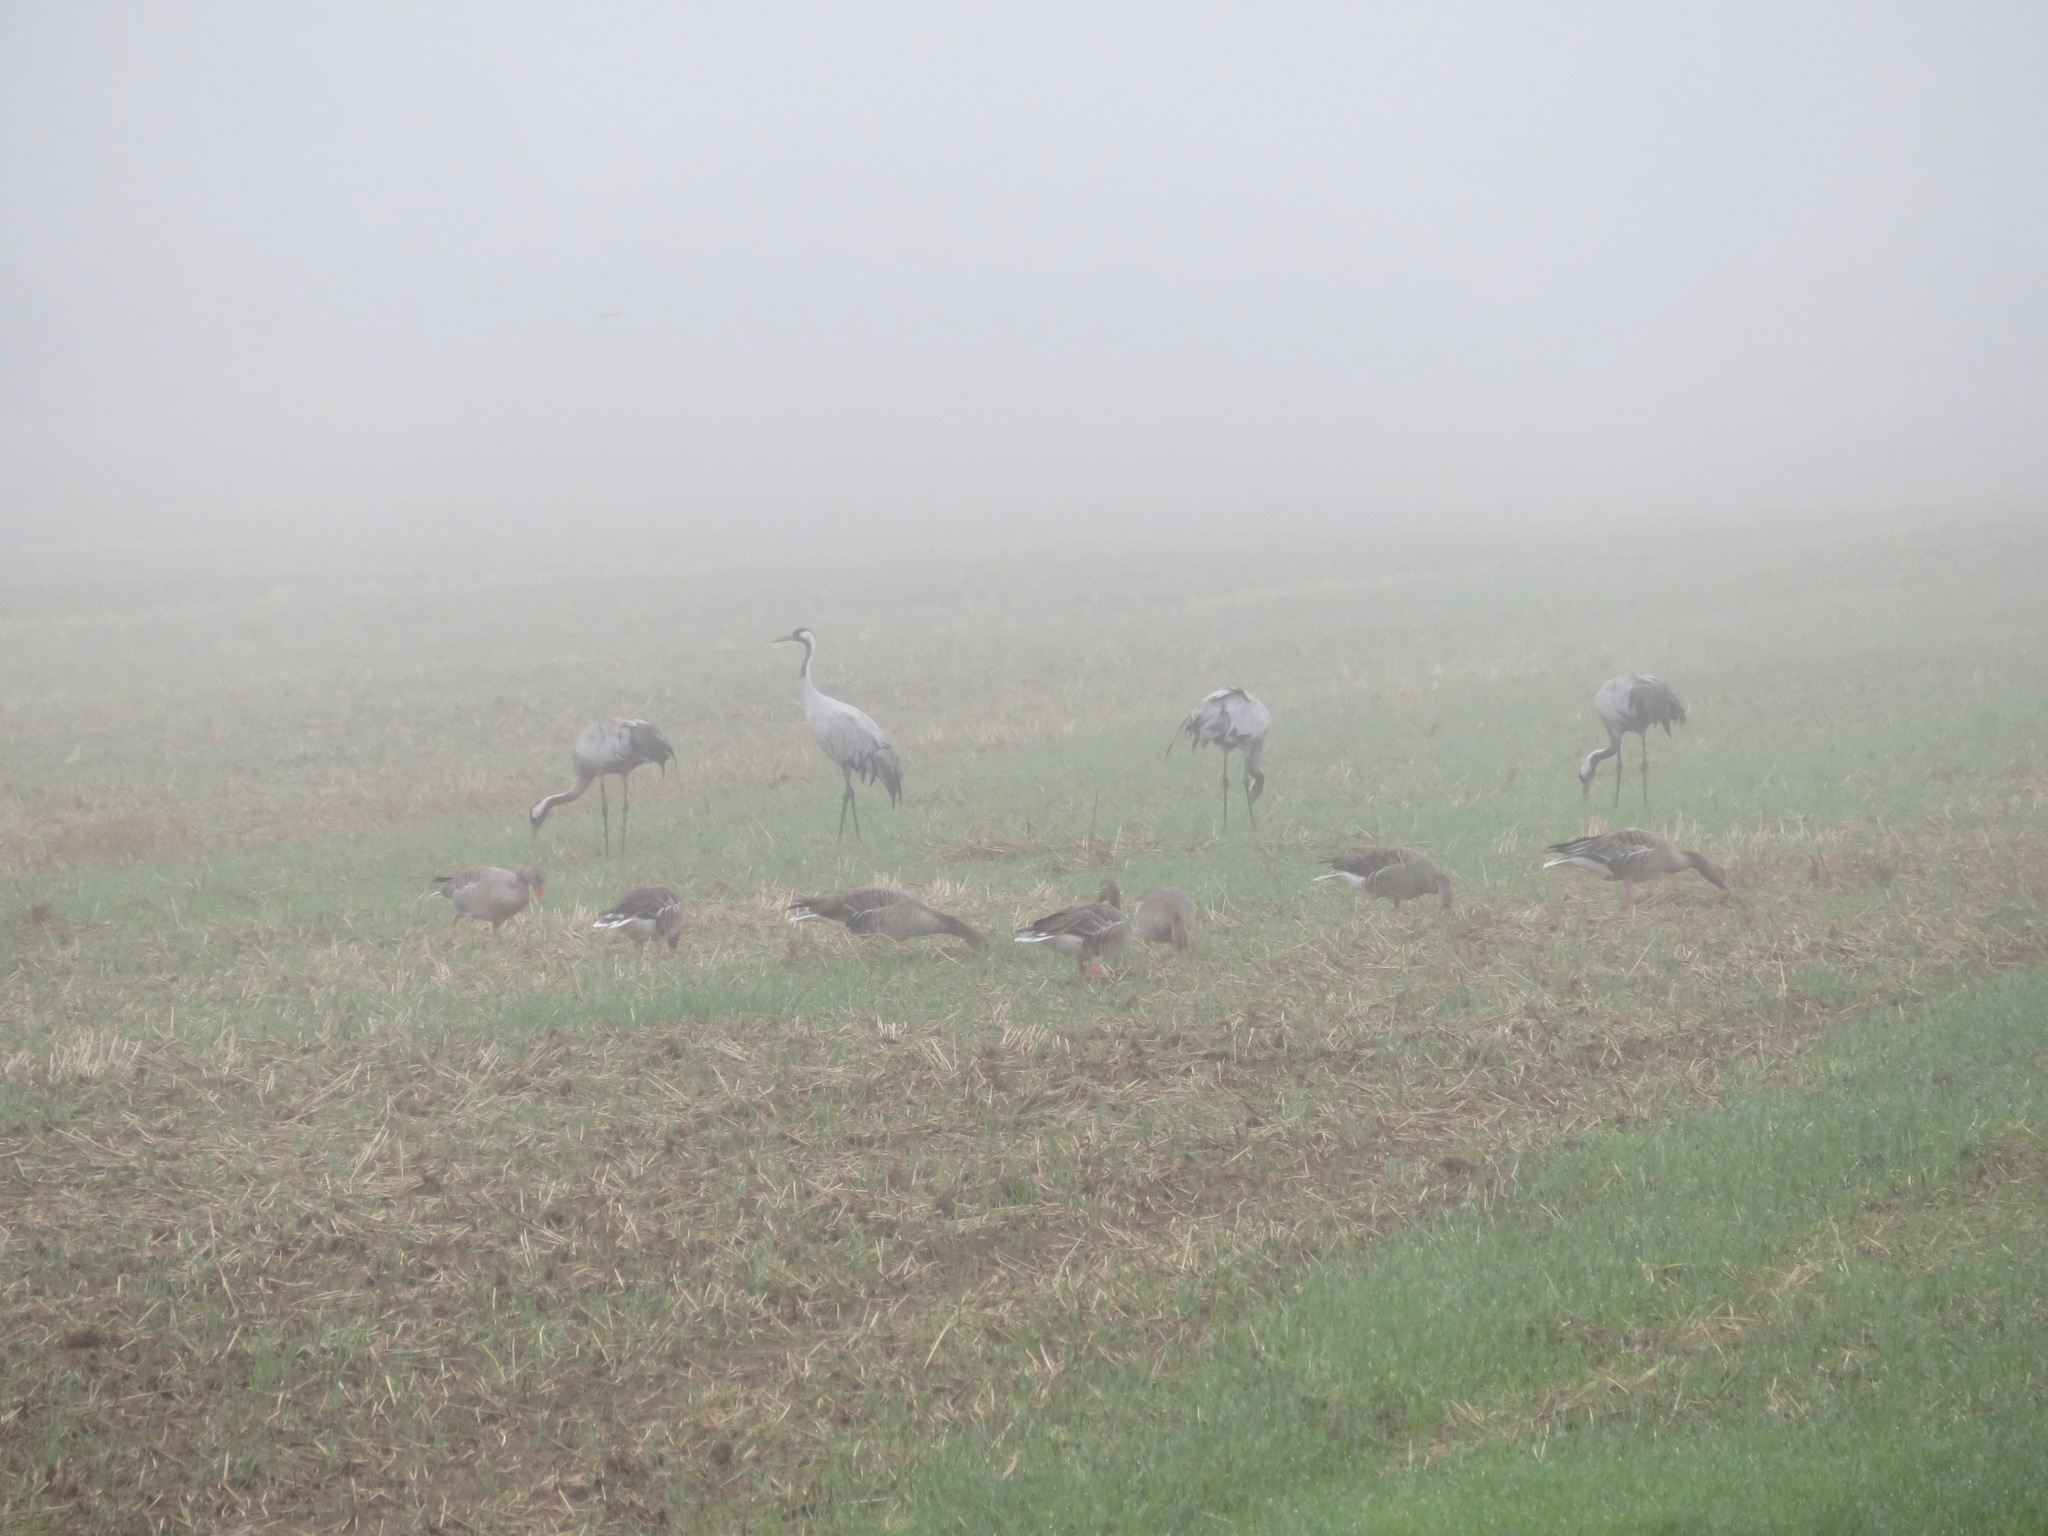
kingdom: Animalia
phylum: Chordata
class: Aves
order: Gruiformes
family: Gruidae
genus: Grus
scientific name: Grus grus
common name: Common crane
